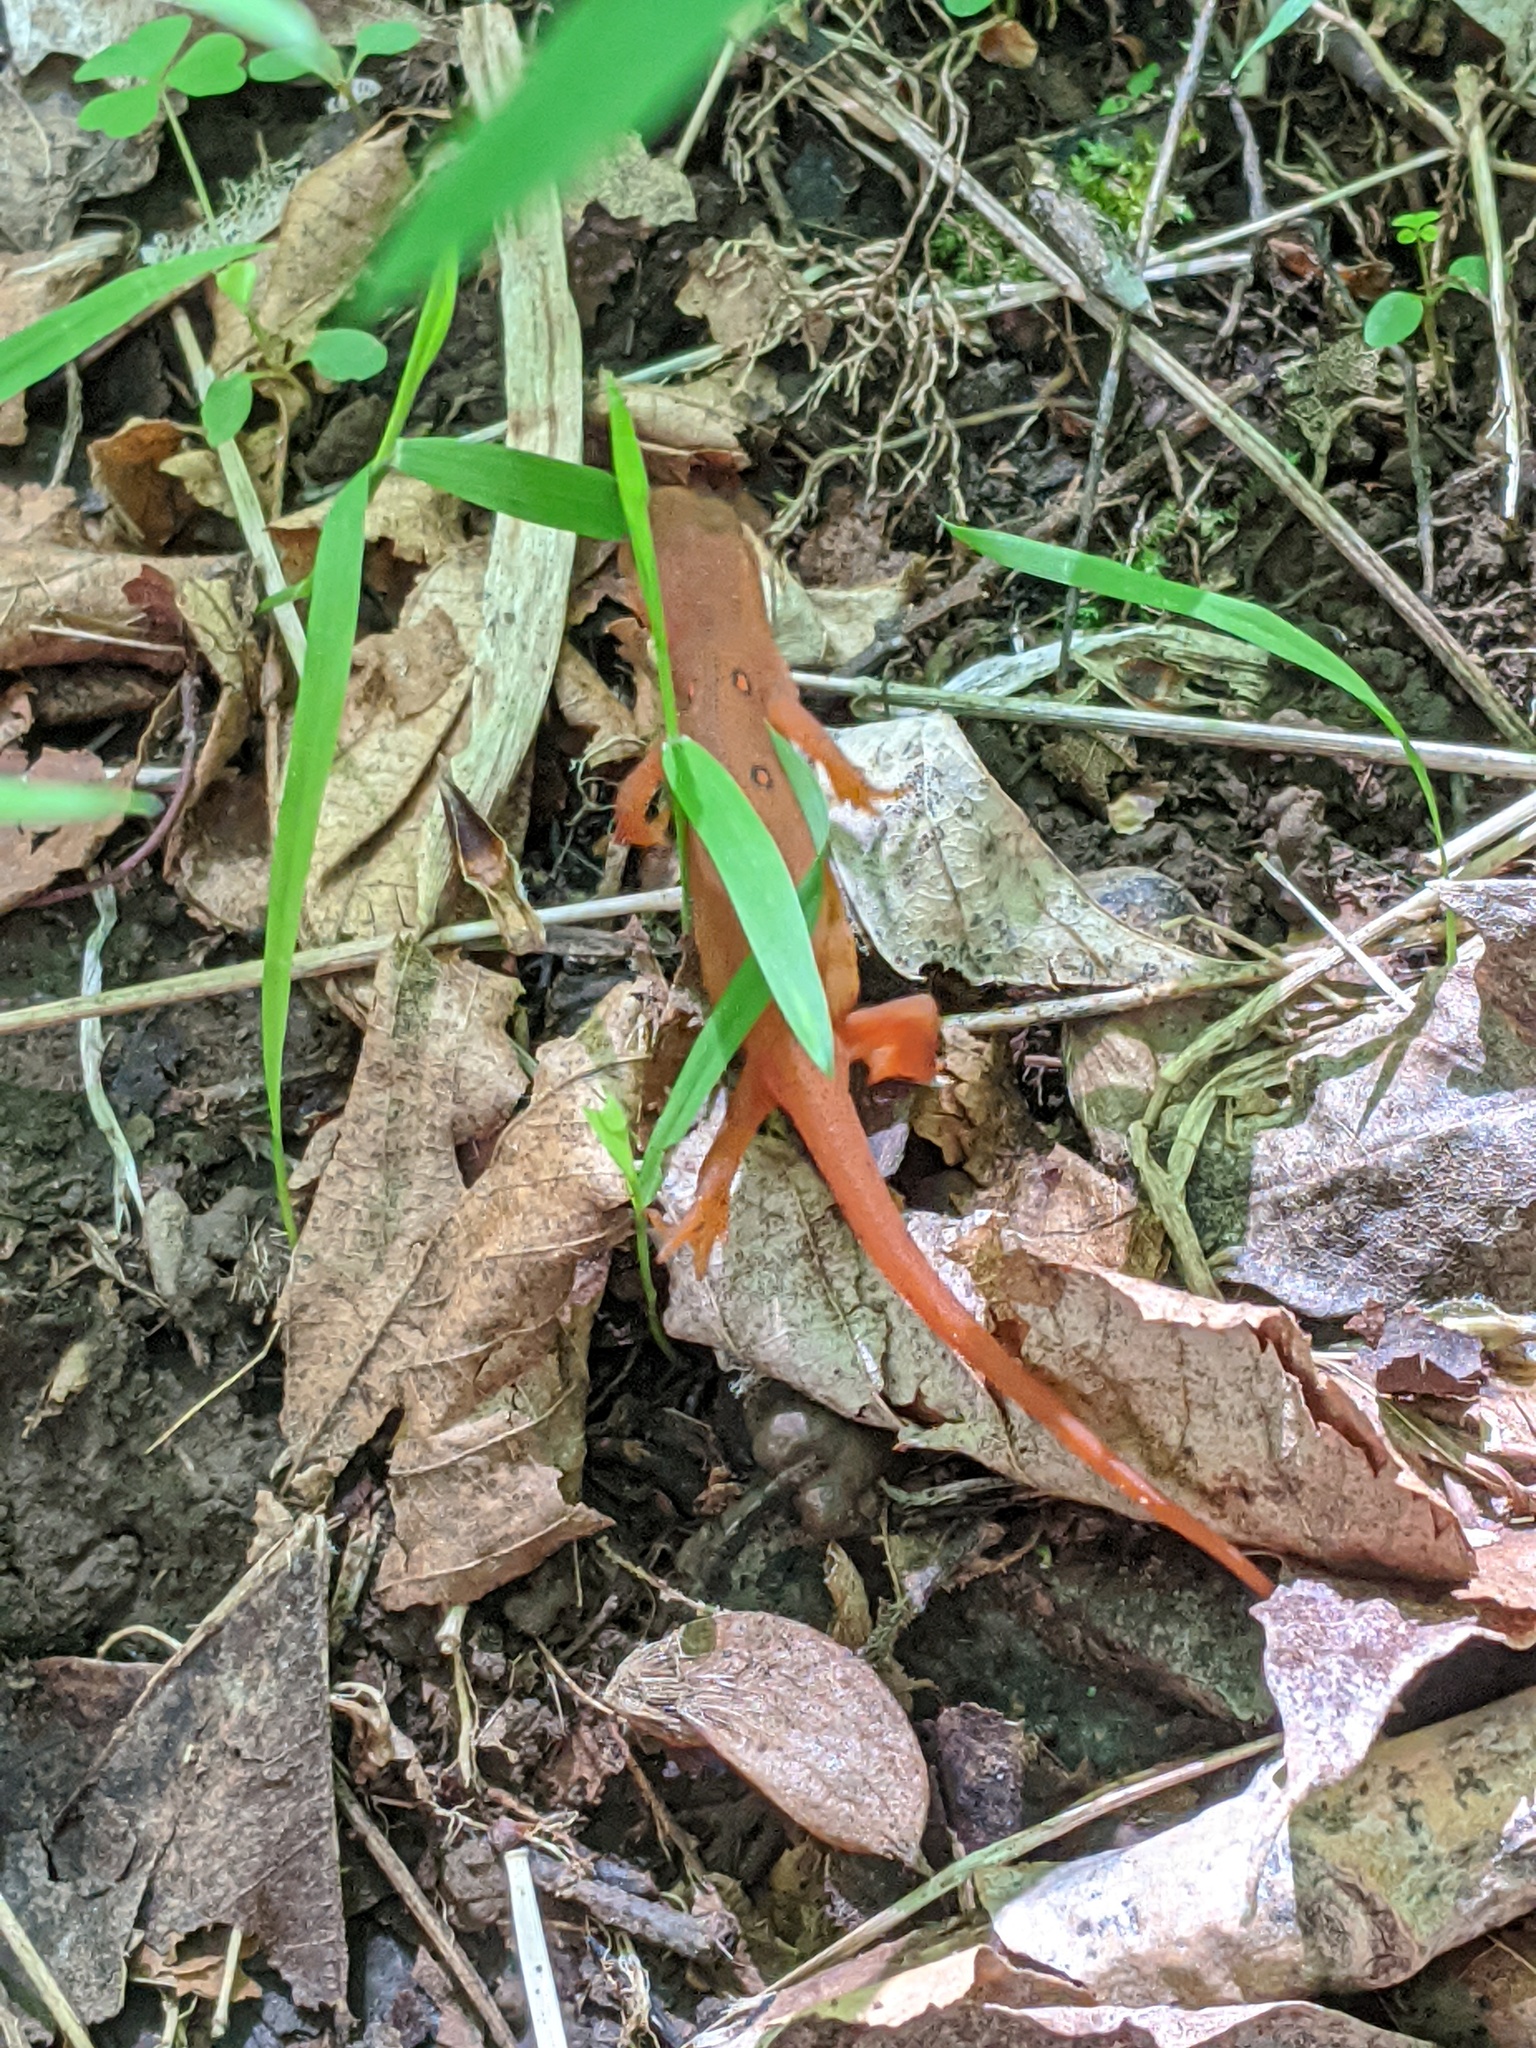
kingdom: Animalia
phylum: Chordata
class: Amphibia
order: Caudata
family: Salamandridae
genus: Notophthalmus
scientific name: Notophthalmus viridescens
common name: Eastern newt
